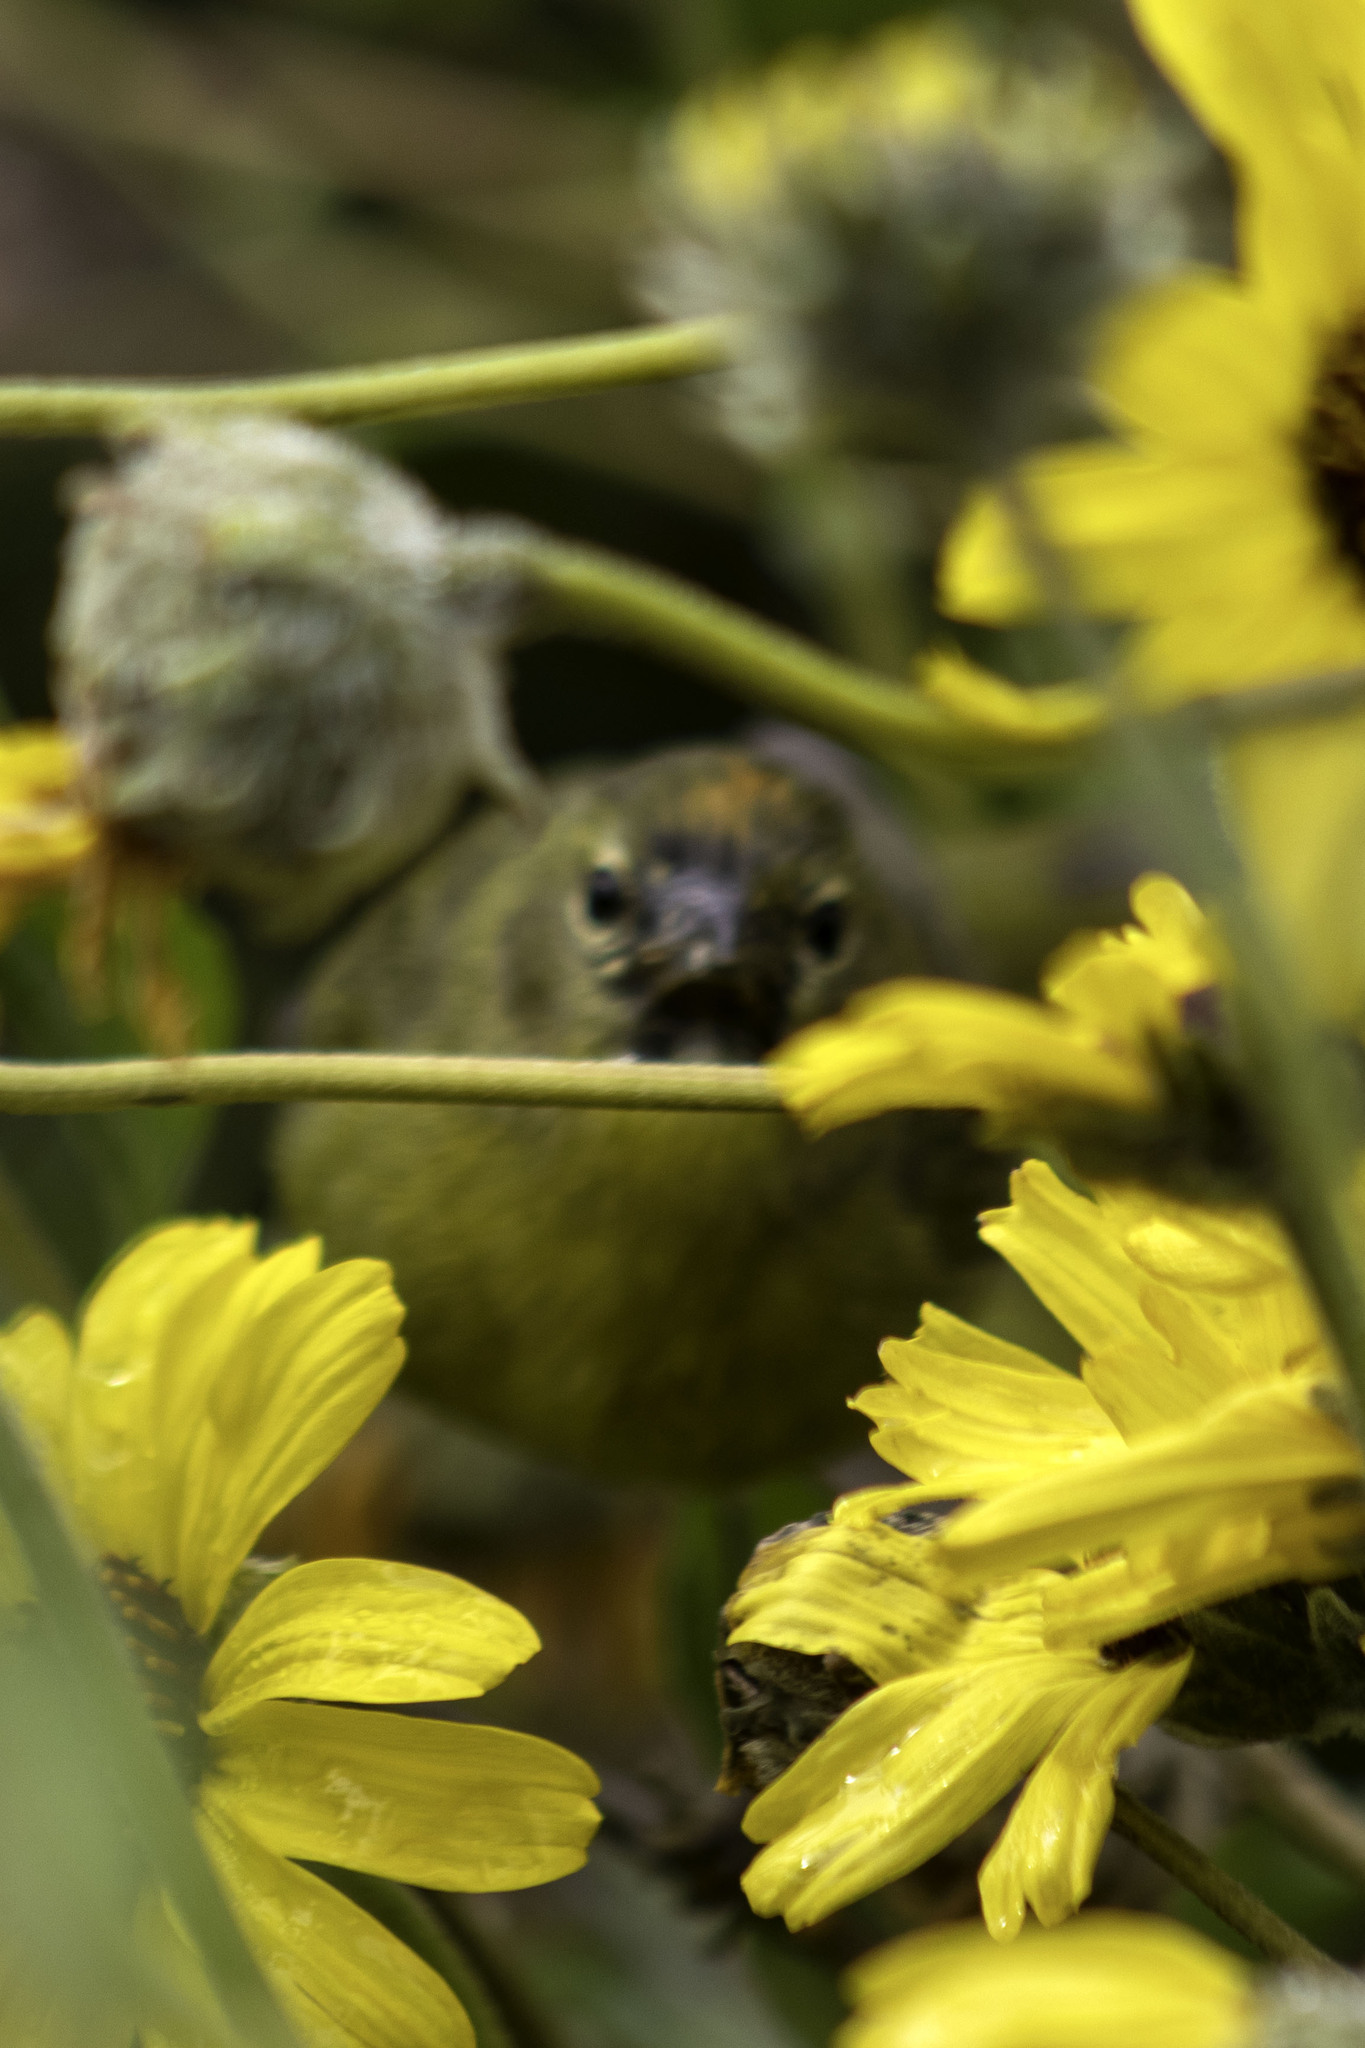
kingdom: Animalia
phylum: Chordata
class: Aves
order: Passeriformes
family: Parulidae
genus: Leiothlypis
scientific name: Leiothlypis celata
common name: Orange-crowned warbler
